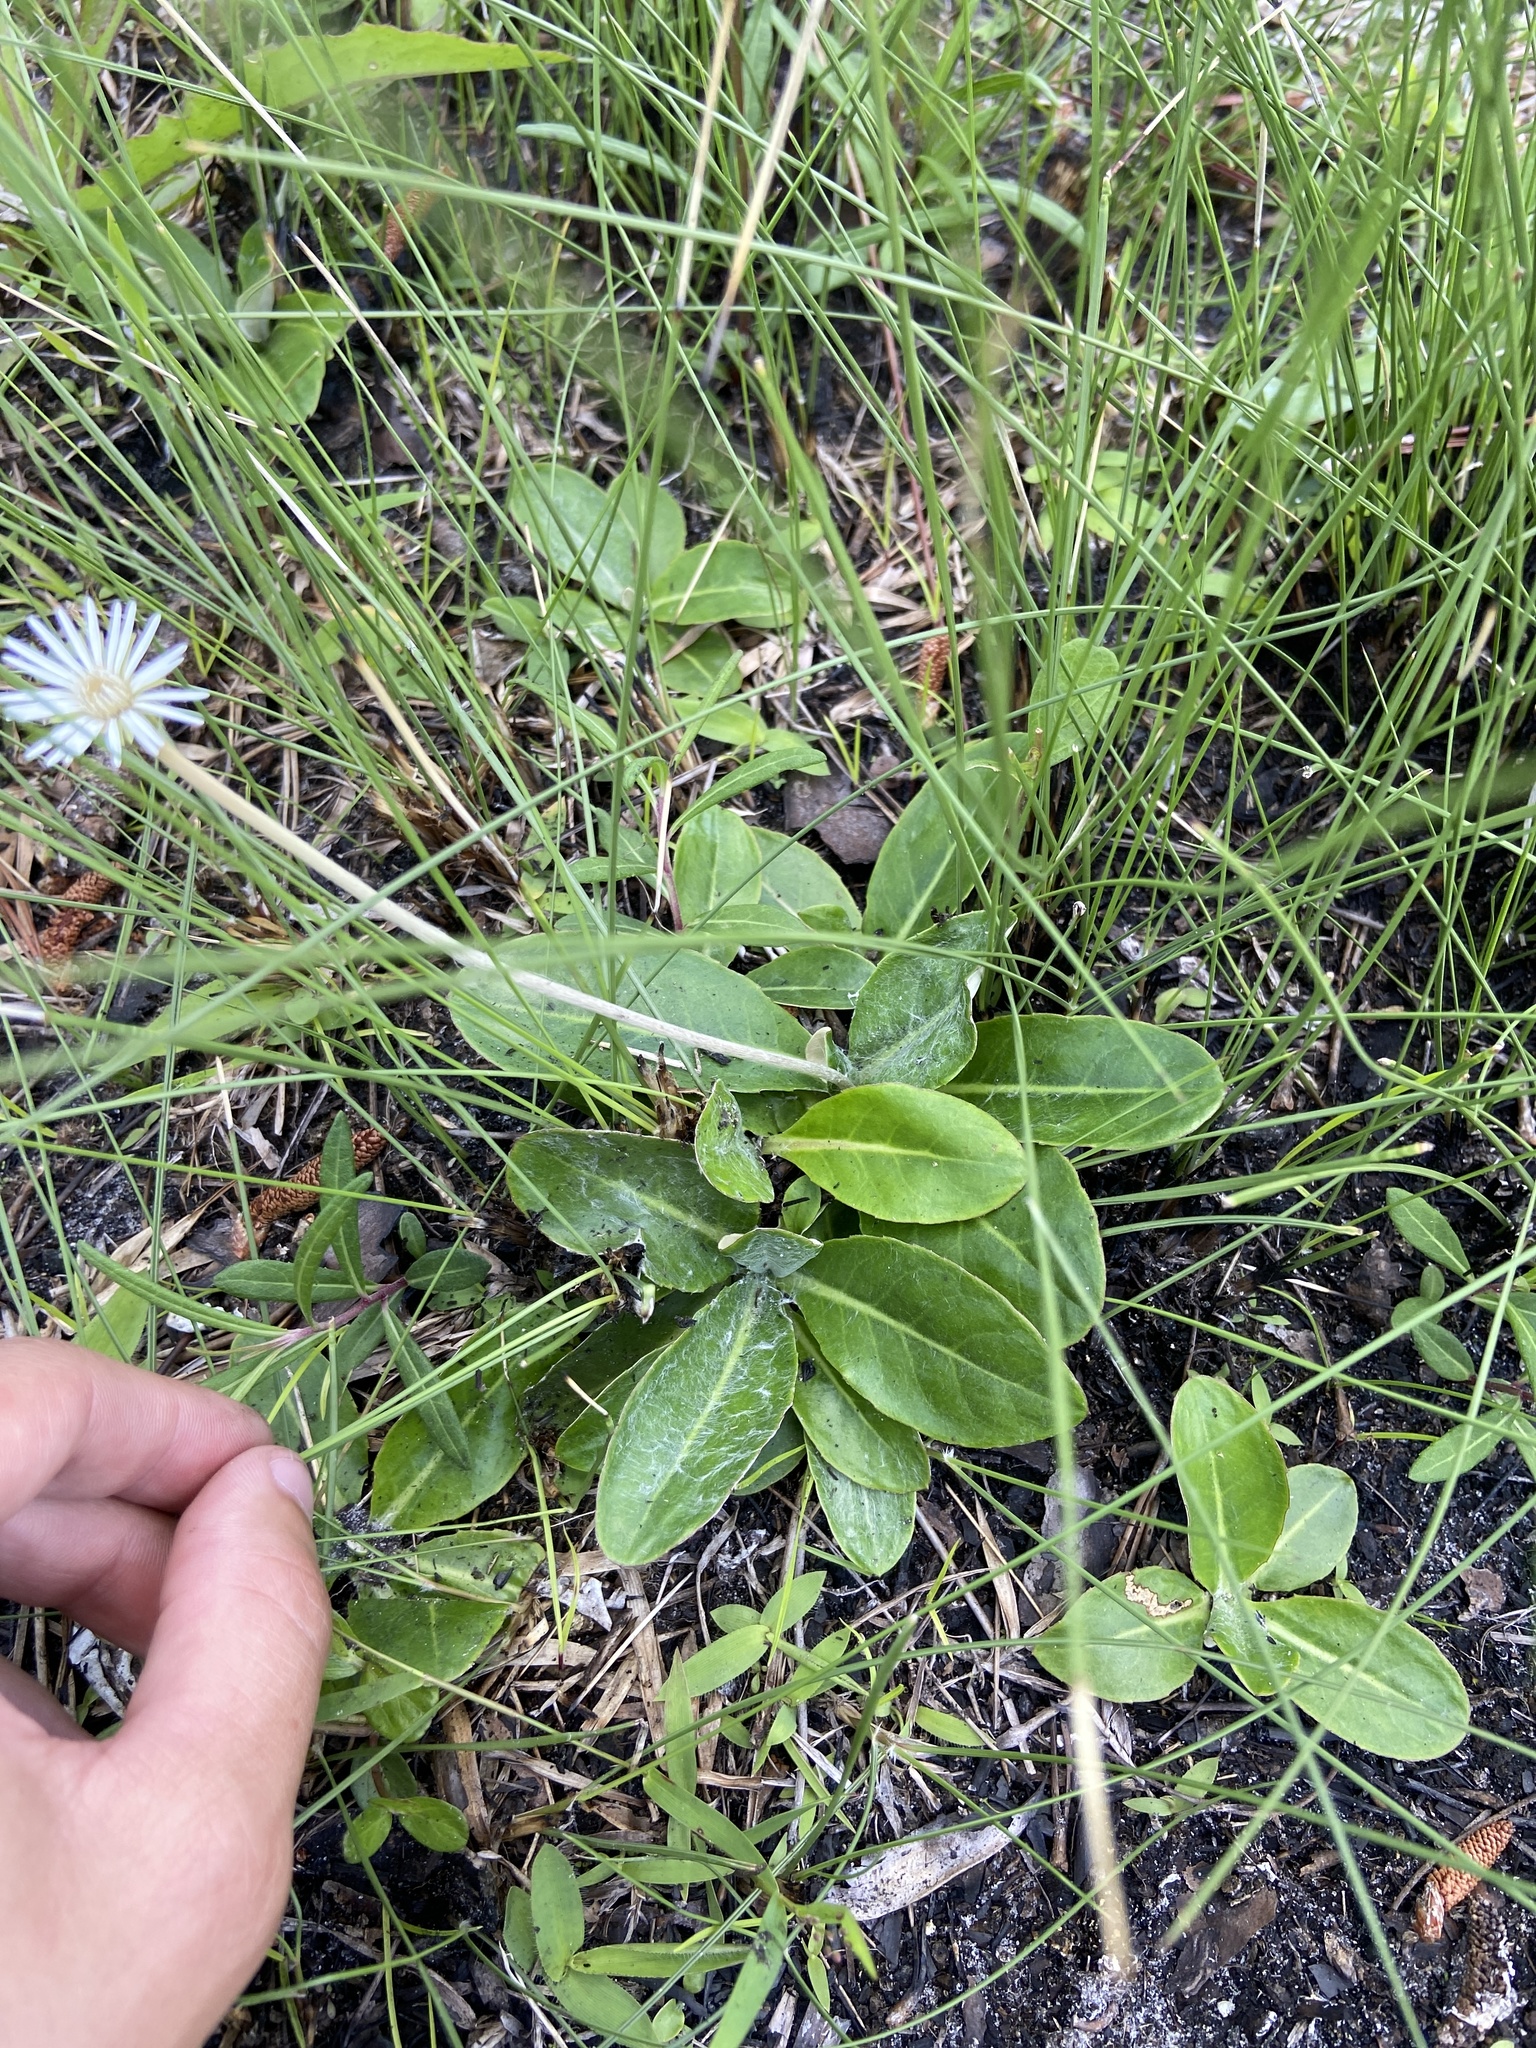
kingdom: Plantae
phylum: Tracheophyta
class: Magnoliopsida
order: Asterales
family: Asteraceae
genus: Chaptalia
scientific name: Chaptalia tomentosa
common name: Woolly sunbonnet
